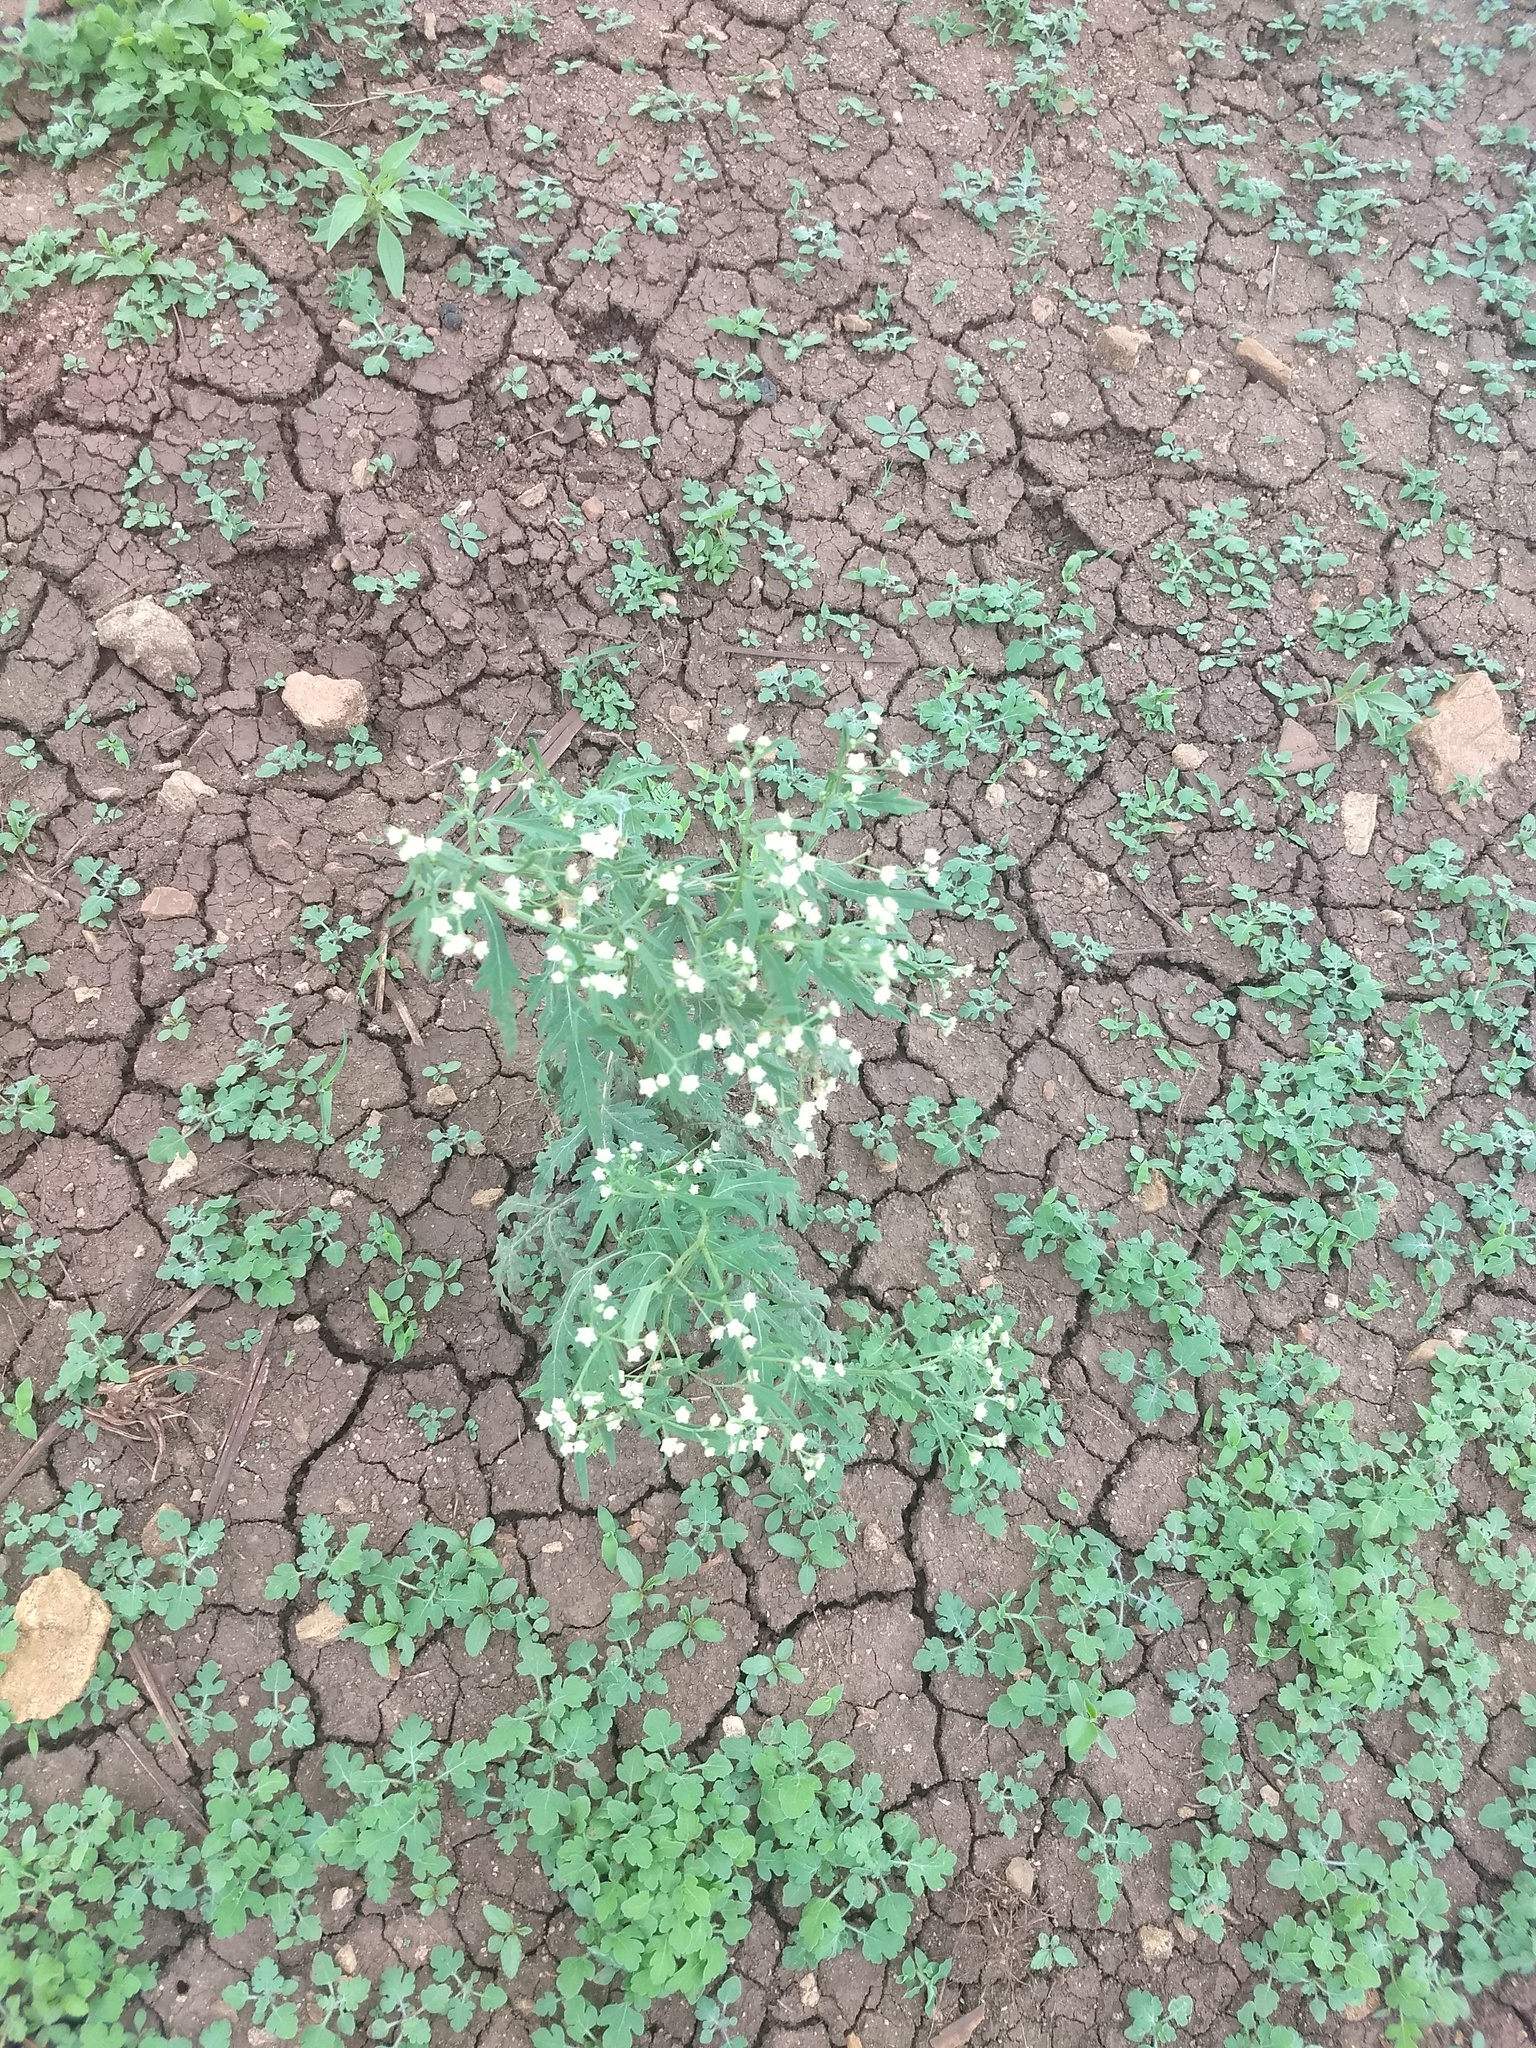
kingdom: Plantae
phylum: Tracheophyta
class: Magnoliopsida
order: Asterales
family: Asteraceae
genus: Parthenium
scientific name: Parthenium hysterophorus
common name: Santa maria feverfew
